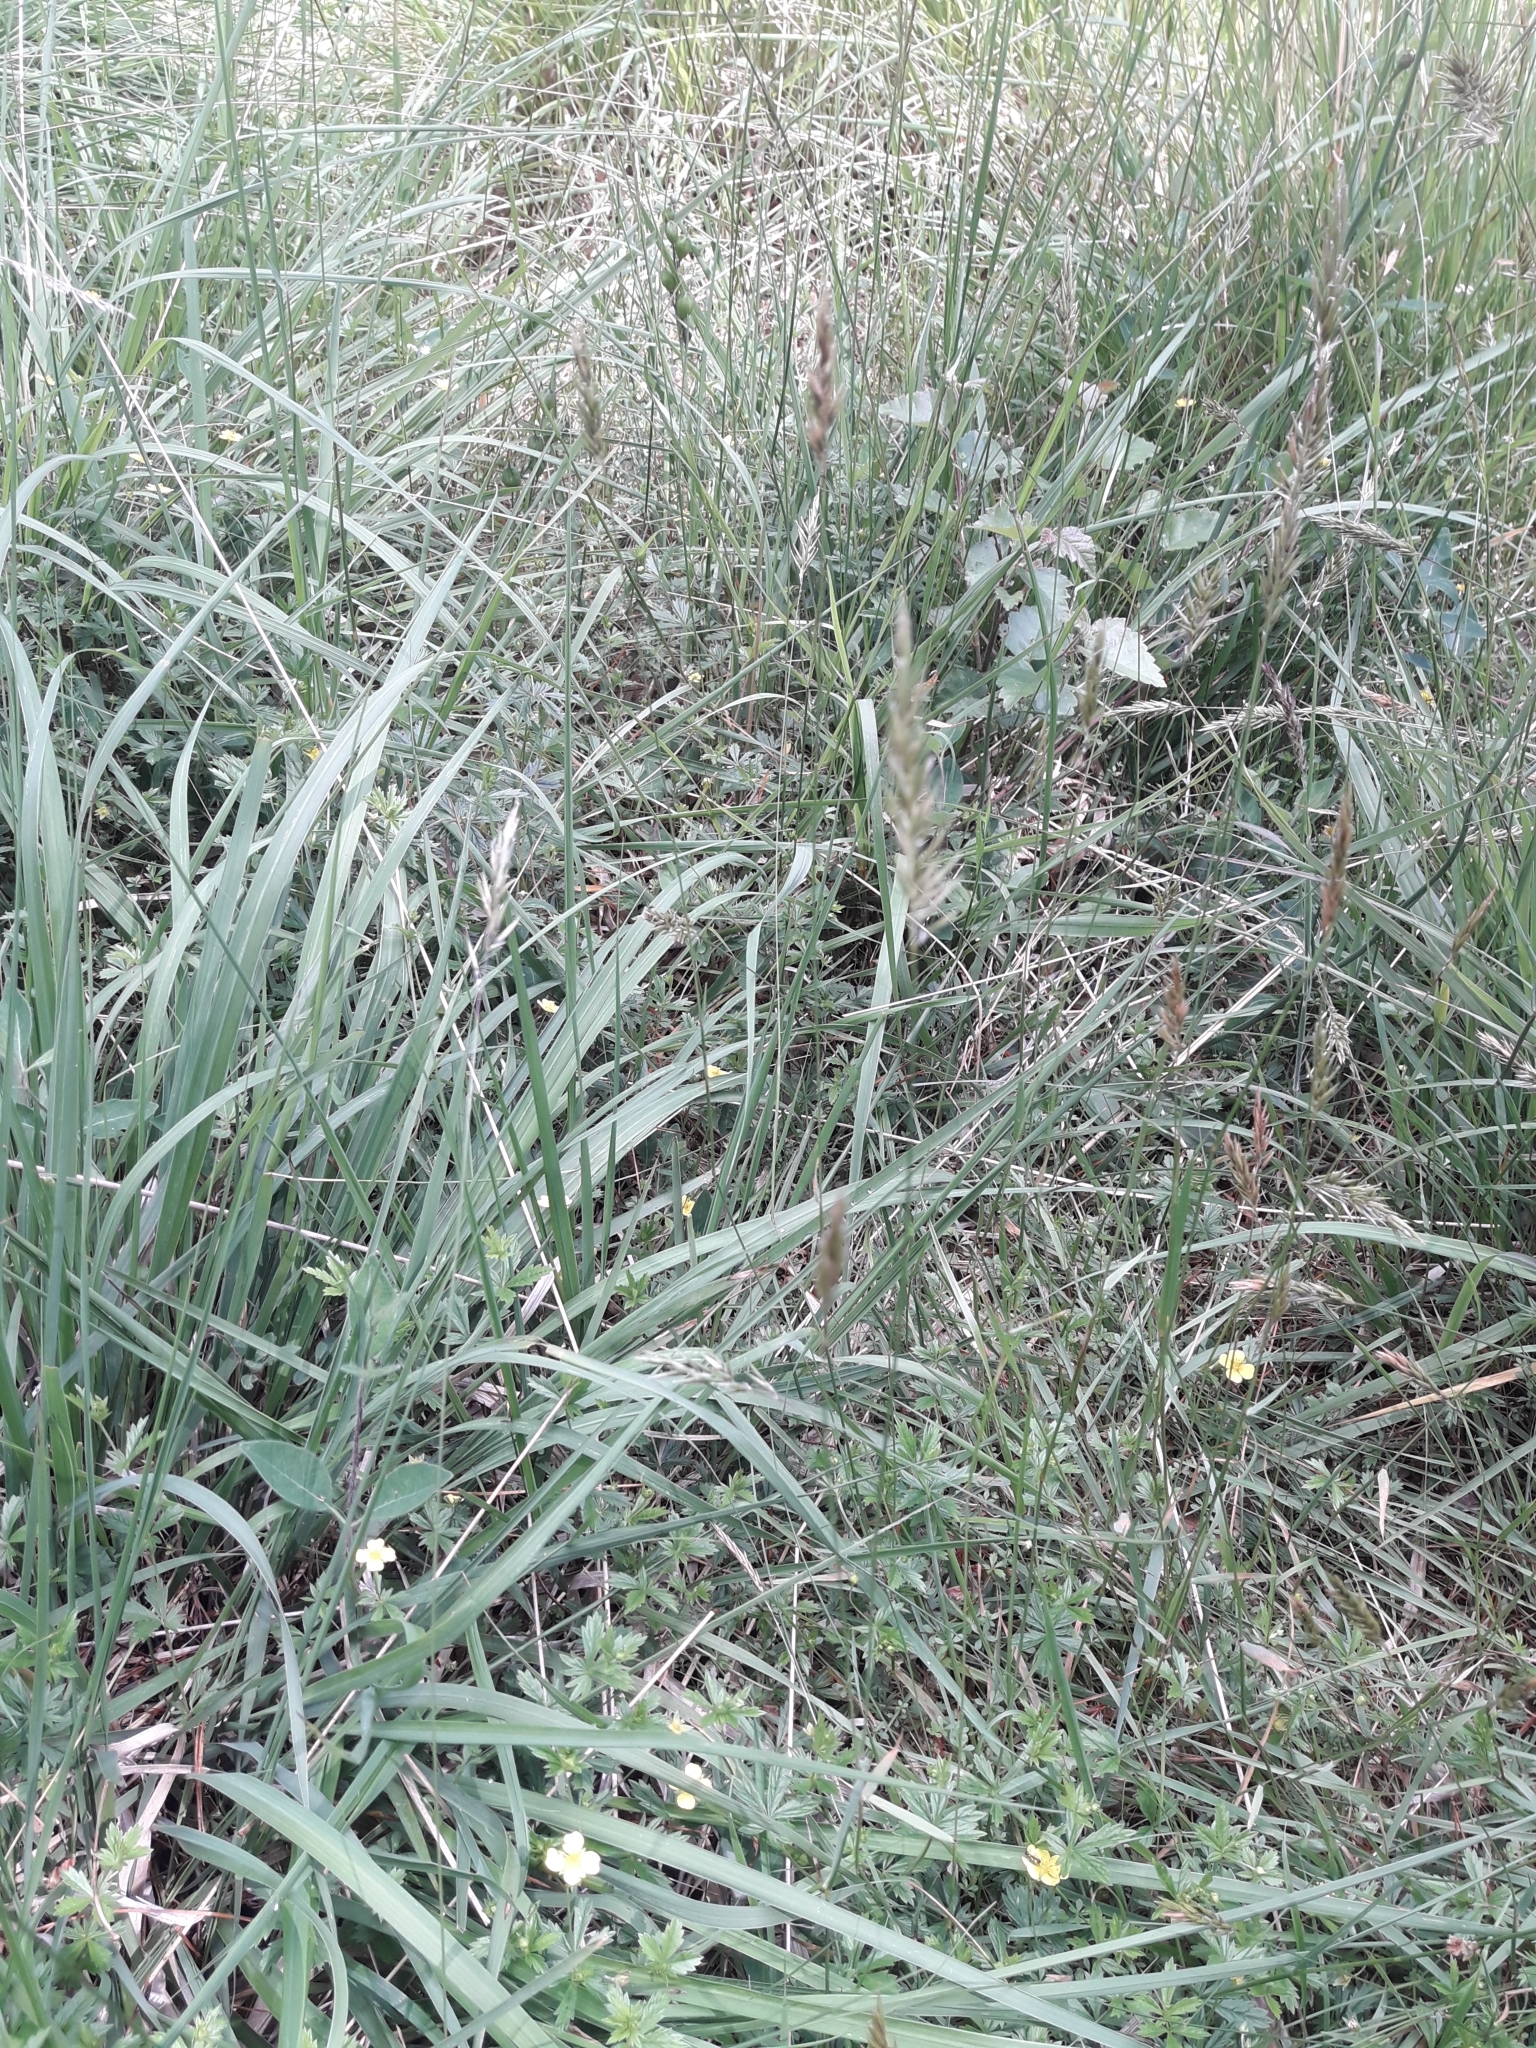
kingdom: Plantae
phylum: Tracheophyta
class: Liliopsida
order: Poales
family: Poaceae
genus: Anthoxanthum
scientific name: Anthoxanthum odoratum
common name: Sweet vernalgrass
